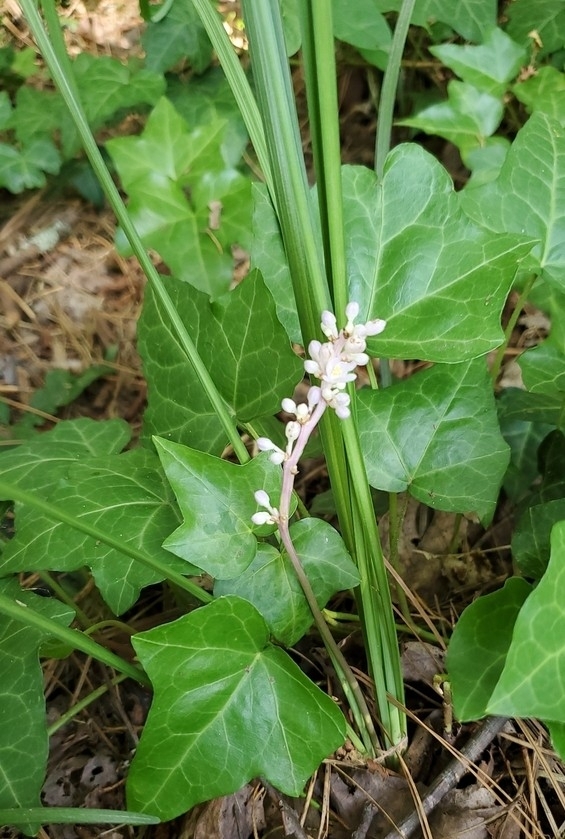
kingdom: Plantae
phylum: Tracheophyta
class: Liliopsida
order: Asparagales
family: Asparagaceae
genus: Liriope
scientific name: Liriope spicata
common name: Creeping liriope
